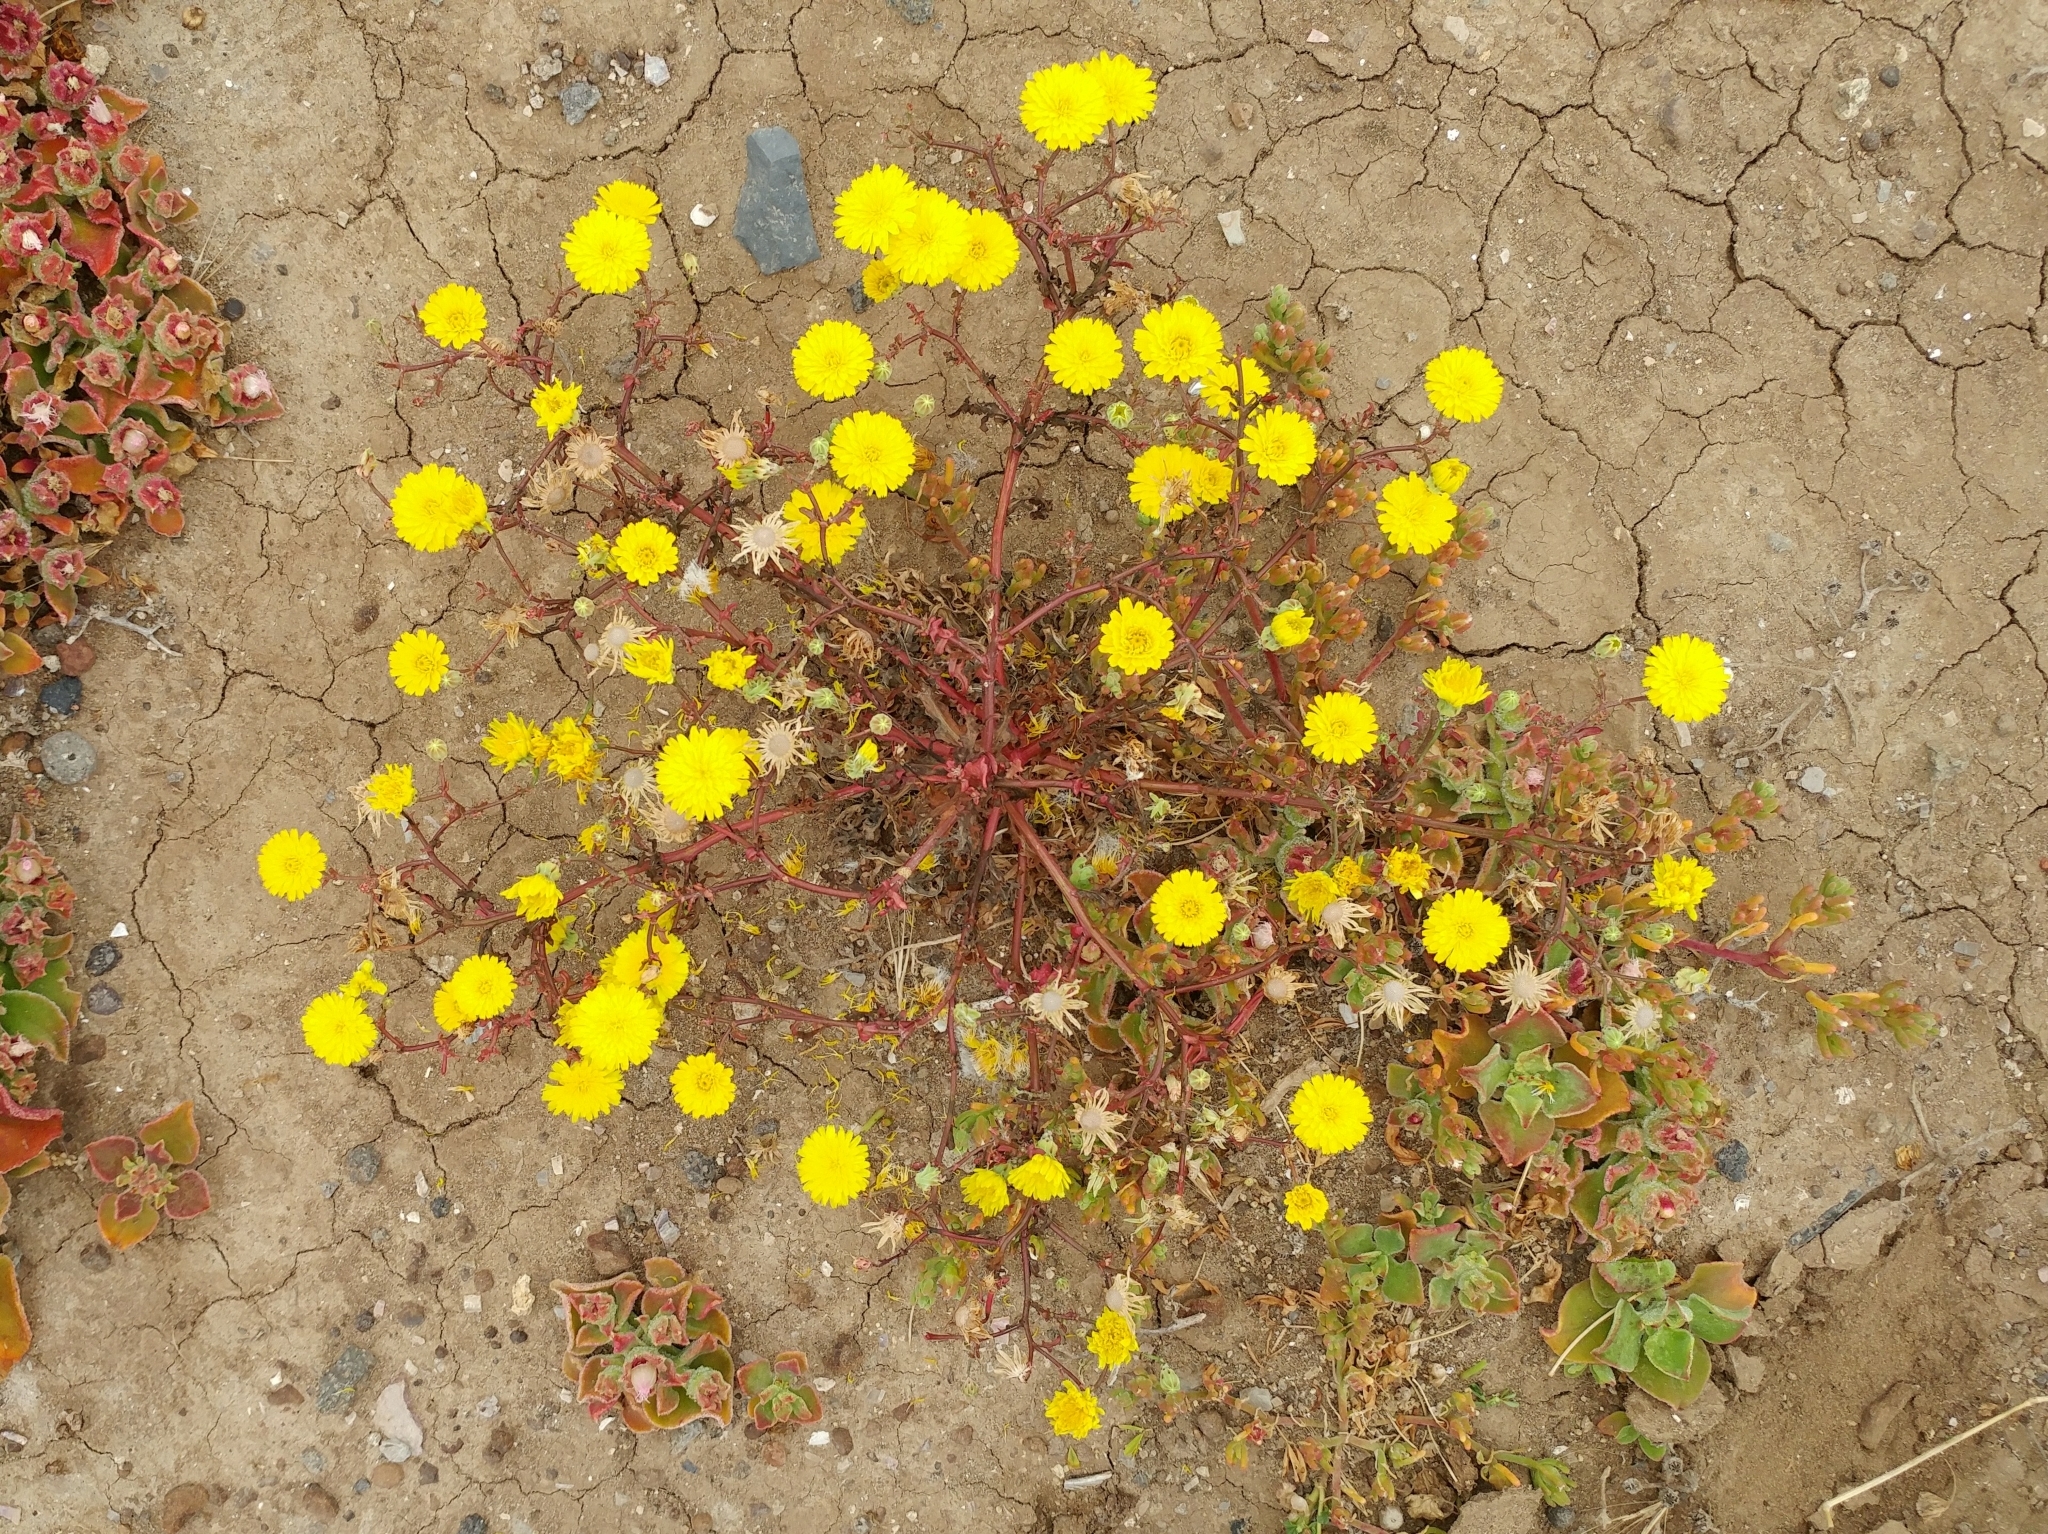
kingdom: Plantae
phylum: Tracheophyta
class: Magnoliopsida
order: Asterales
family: Asteraceae
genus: Malacothrix
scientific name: Malacothrix foliosa
